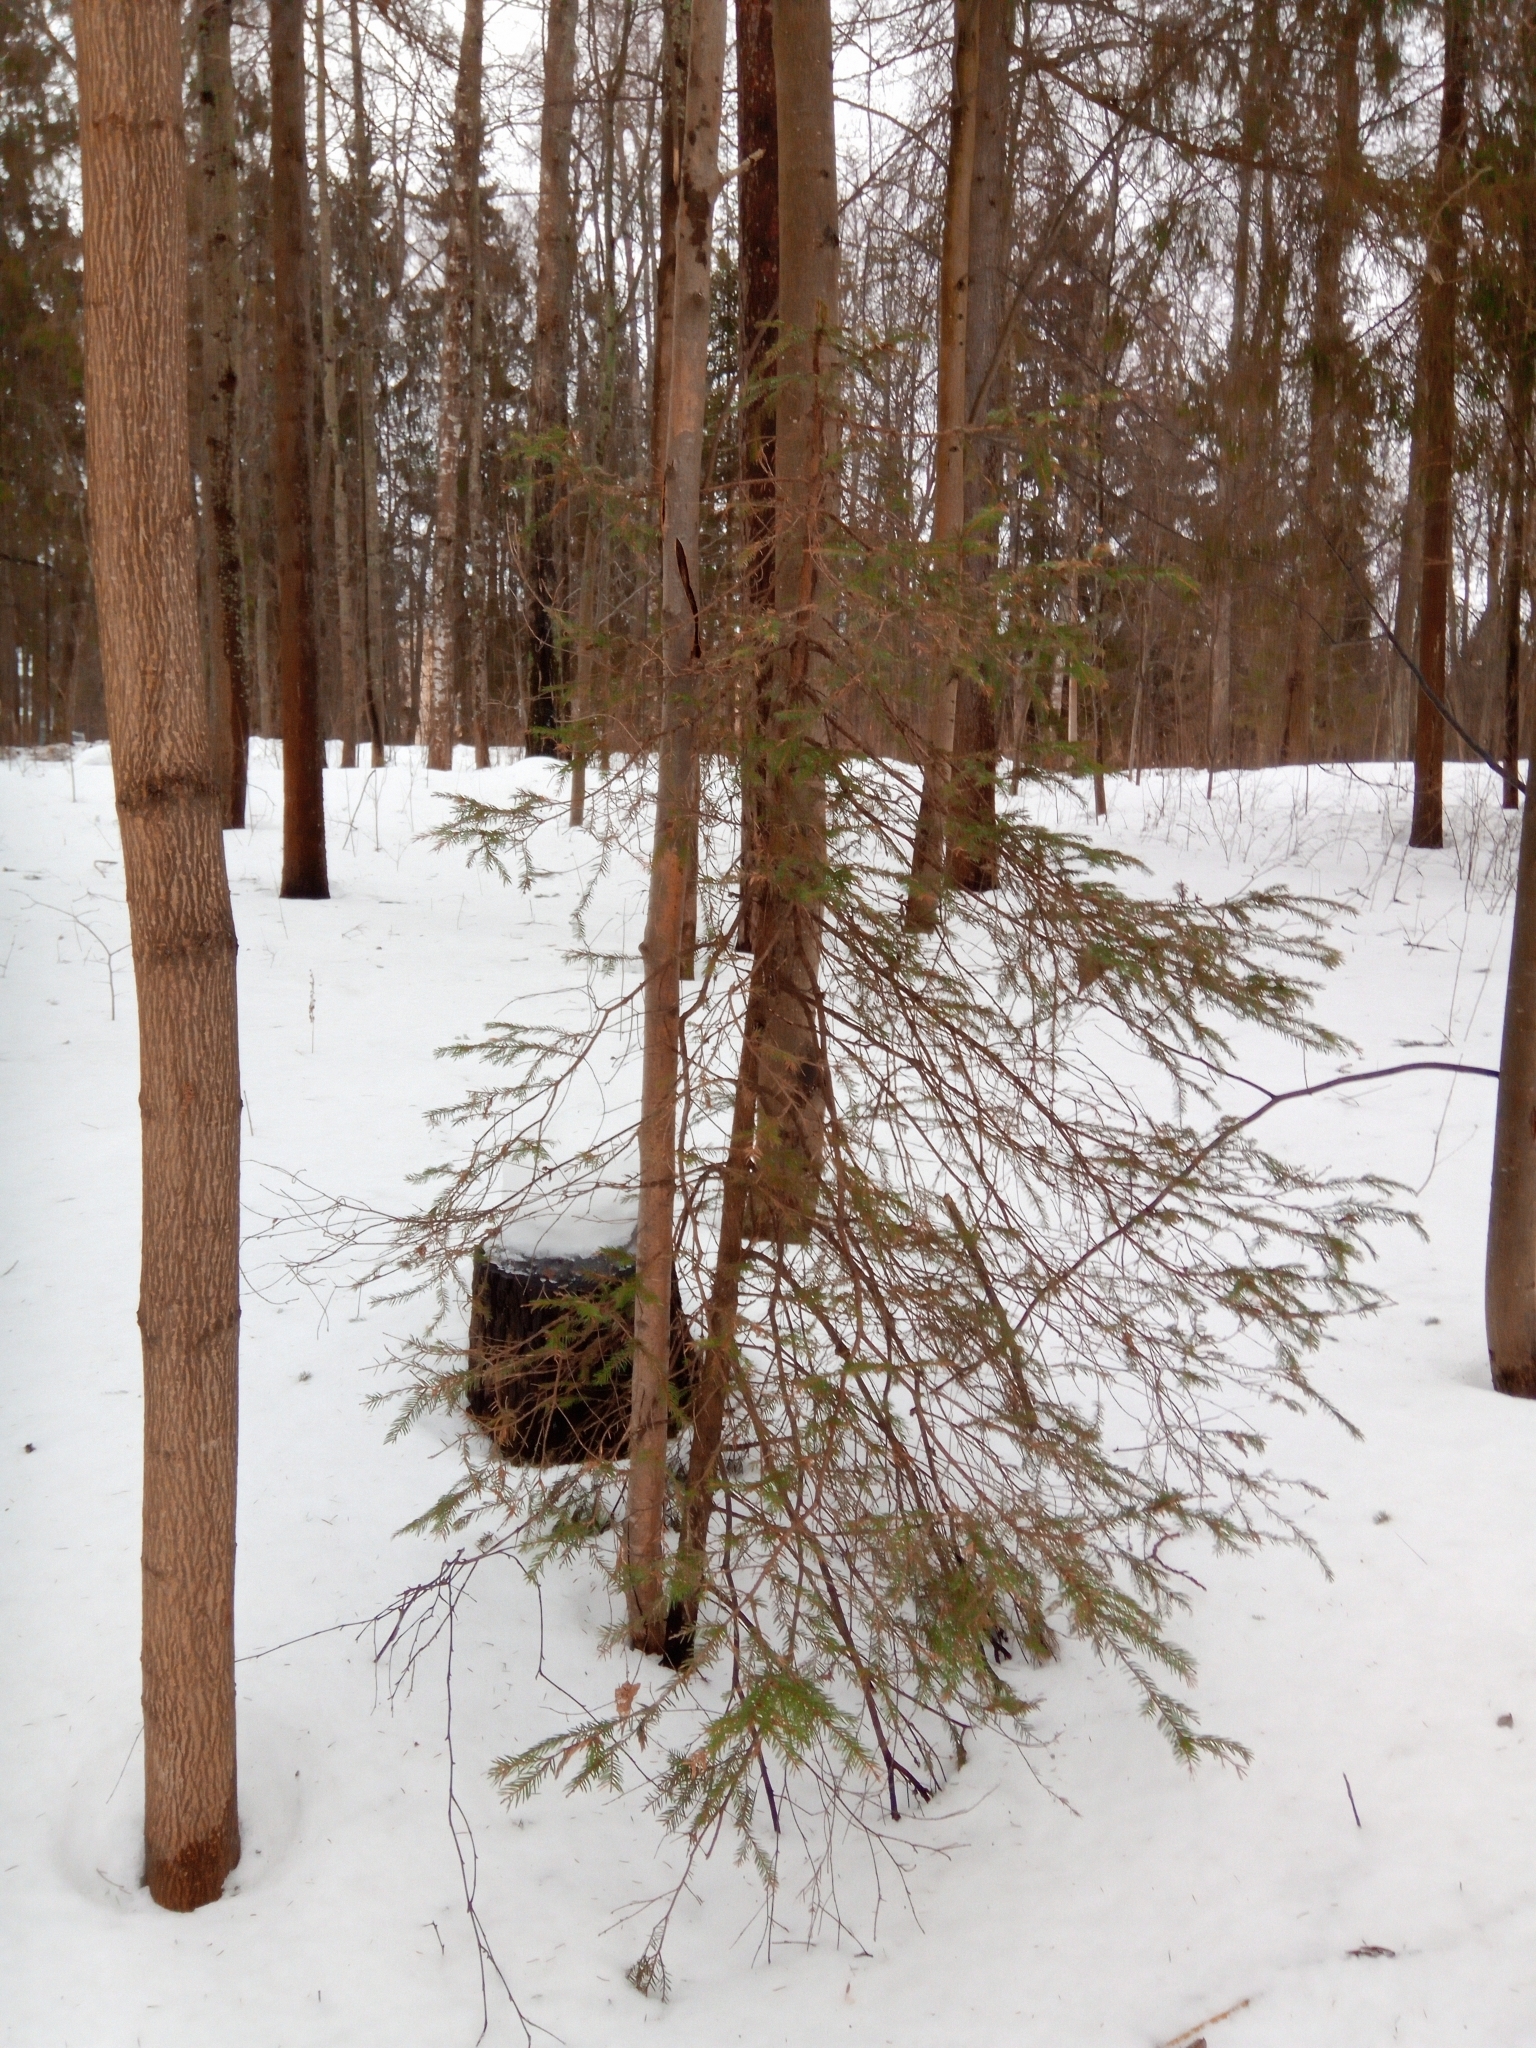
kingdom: Plantae
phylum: Tracheophyta
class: Pinopsida
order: Pinales
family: Pinaceae
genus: Picea
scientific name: Picea abies
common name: Norway spruce
